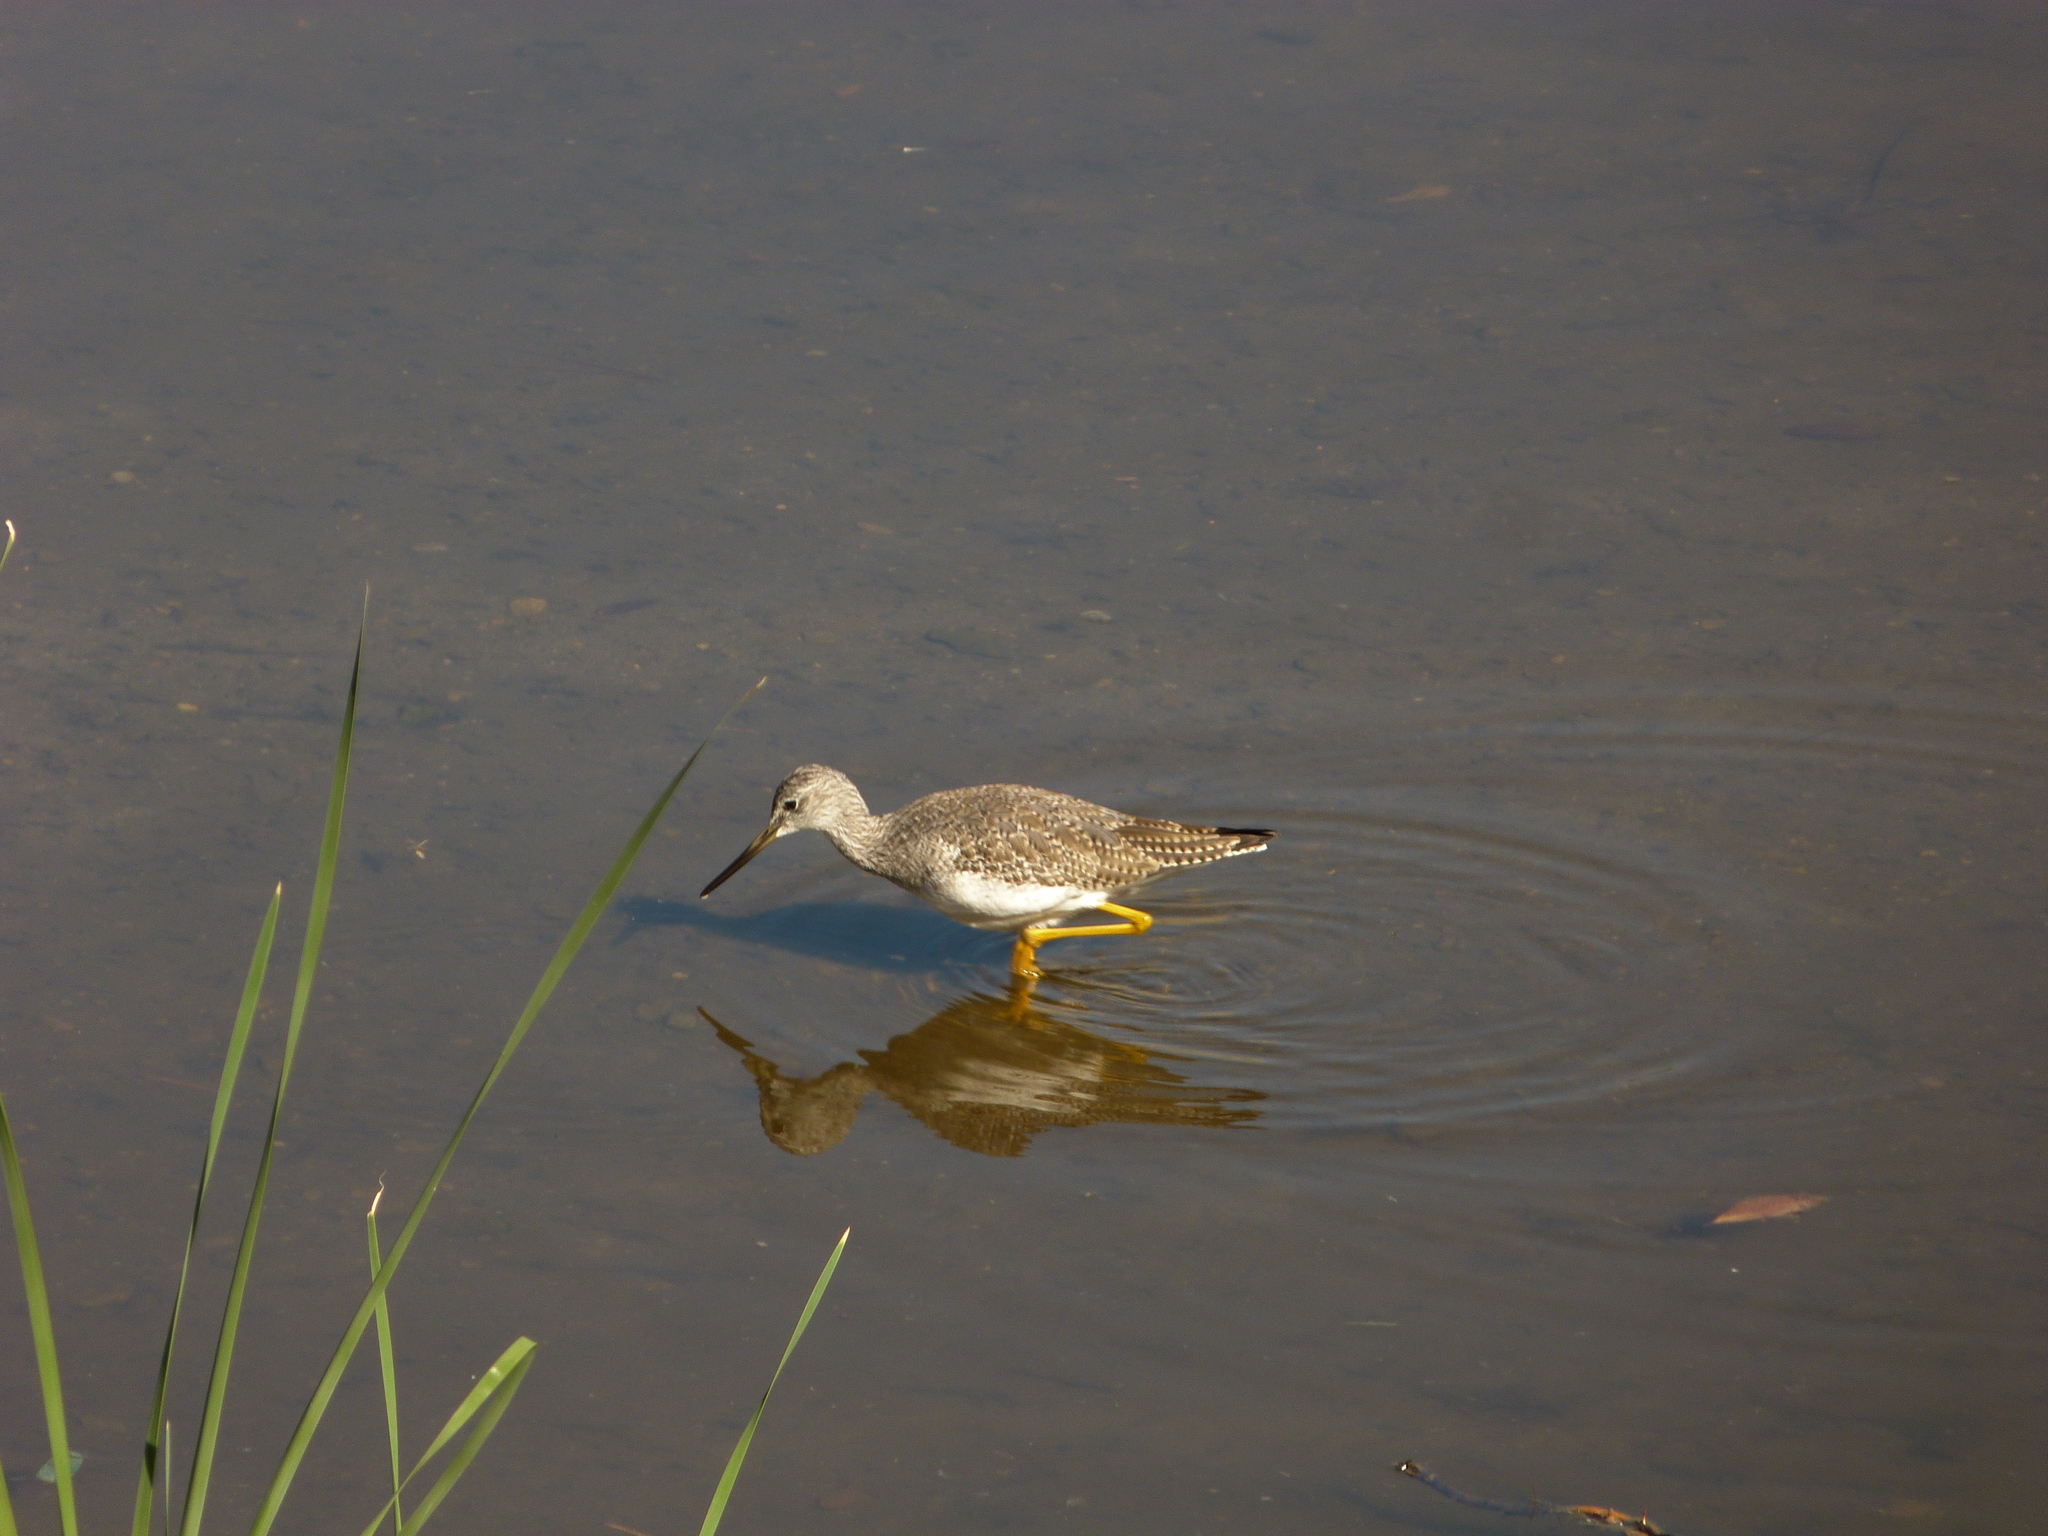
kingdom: Animalia
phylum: Chordata
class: Aves
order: Charadriiformes
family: Scolopacidae
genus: Tringa
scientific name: Tringa melanoleuca
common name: Greater yellowlegs
